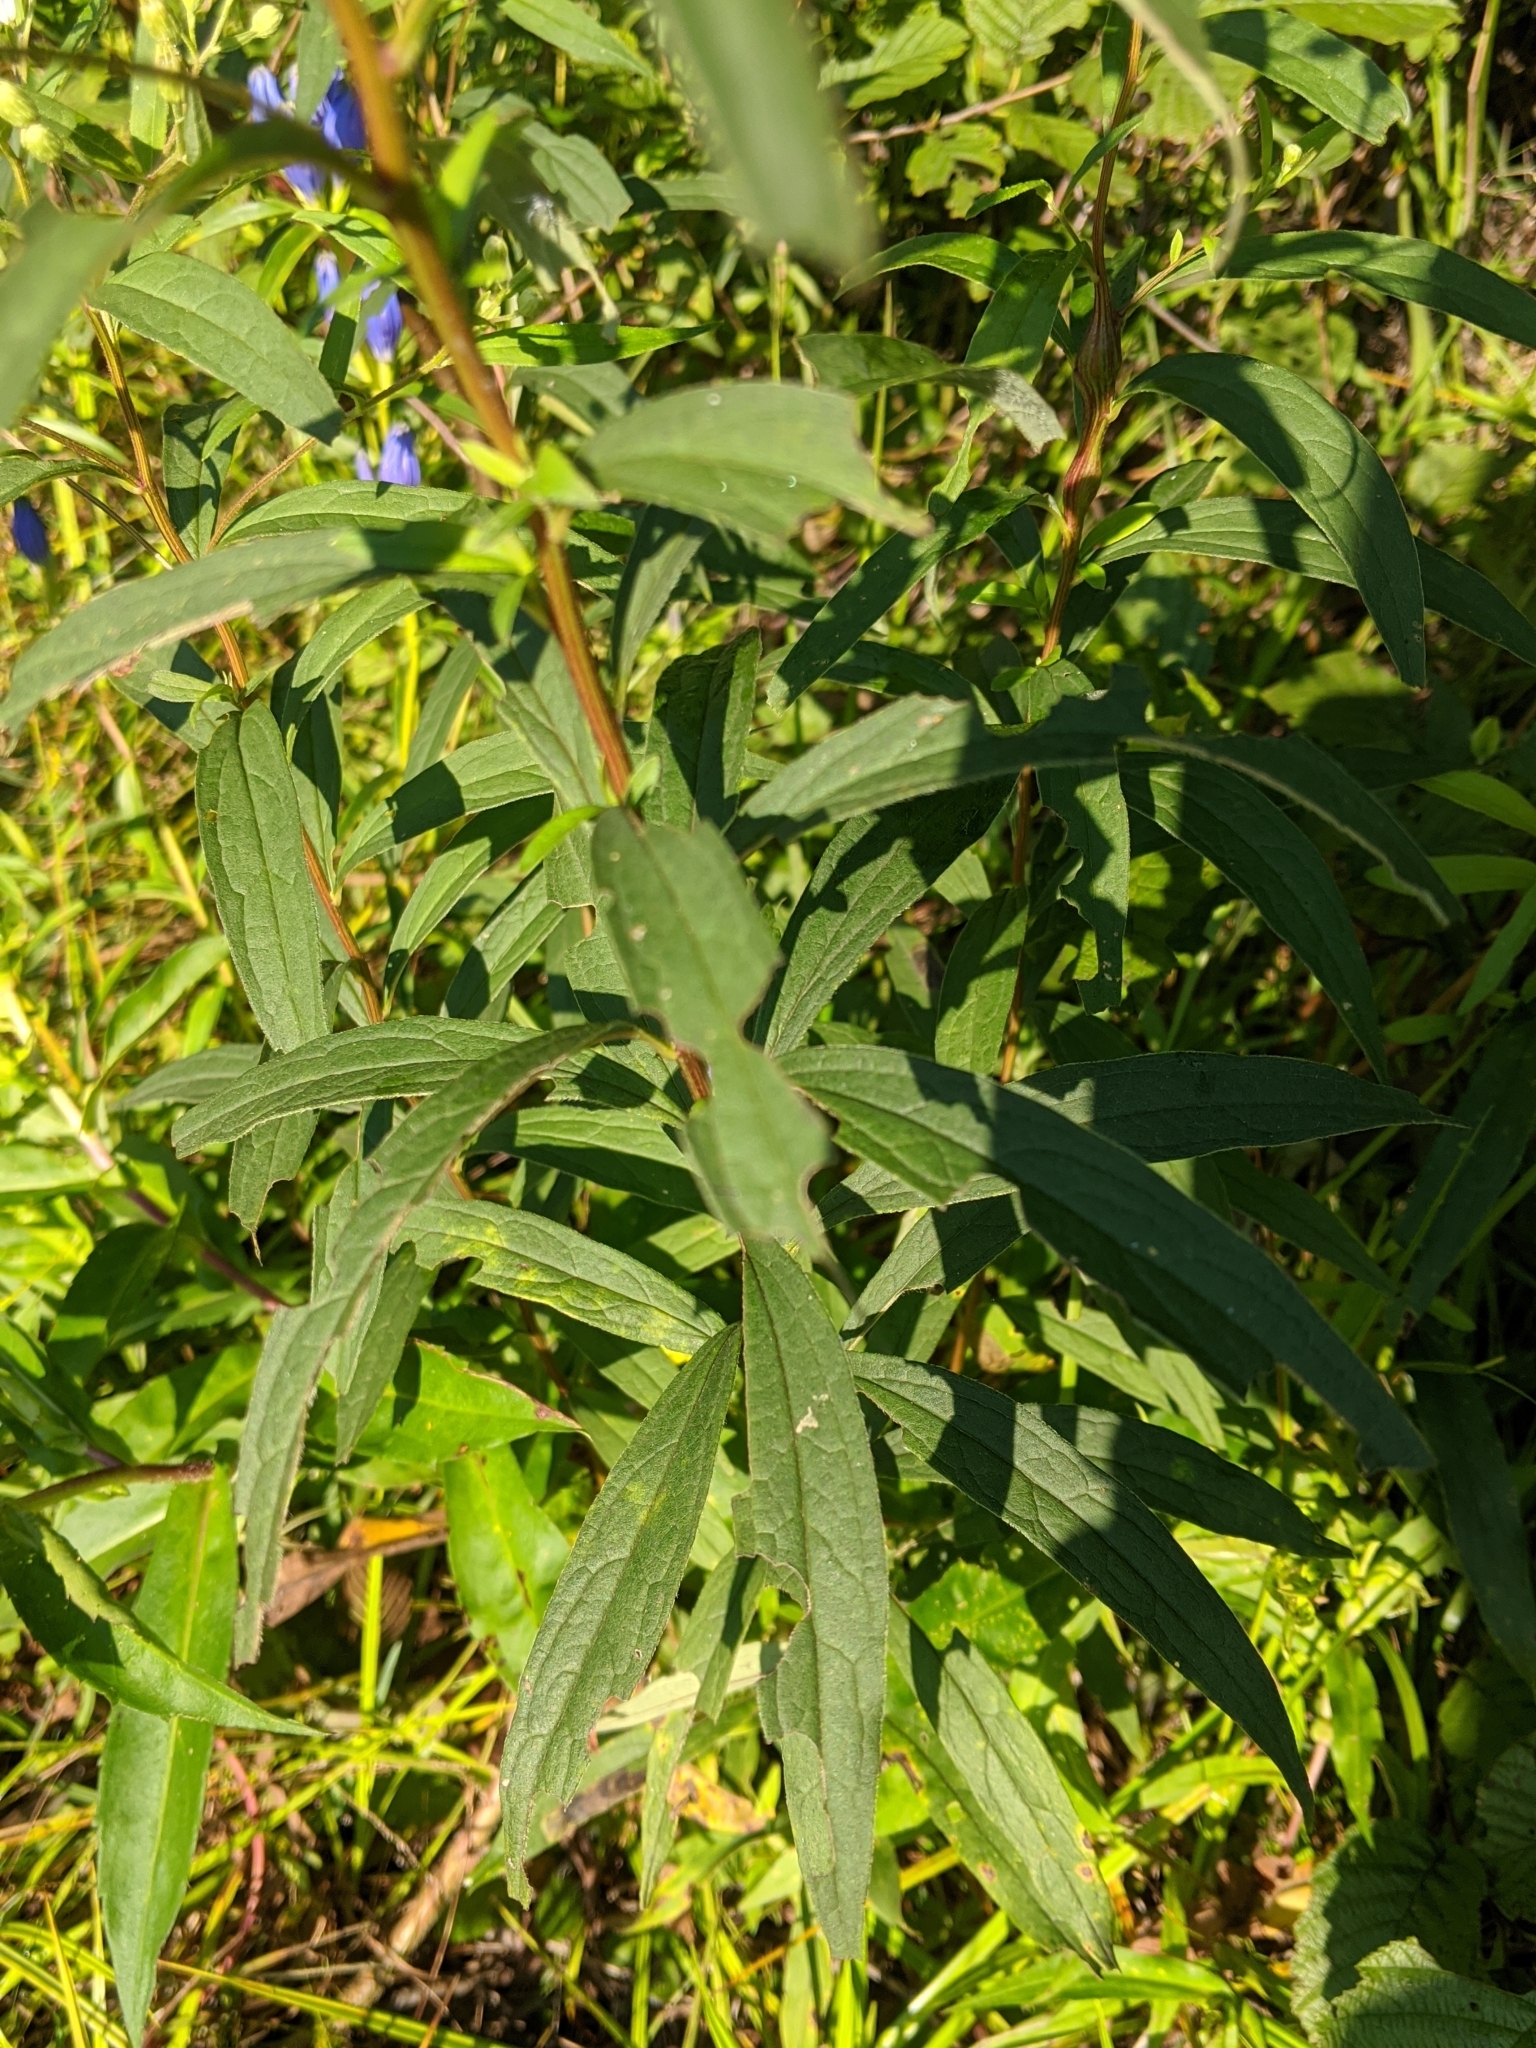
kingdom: Plantae
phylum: Tracheophyta
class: Magnoliopsida
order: Gentianales
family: Gentianaceae
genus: Gentiana
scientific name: Gentiana linearis
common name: Bastard gentian
